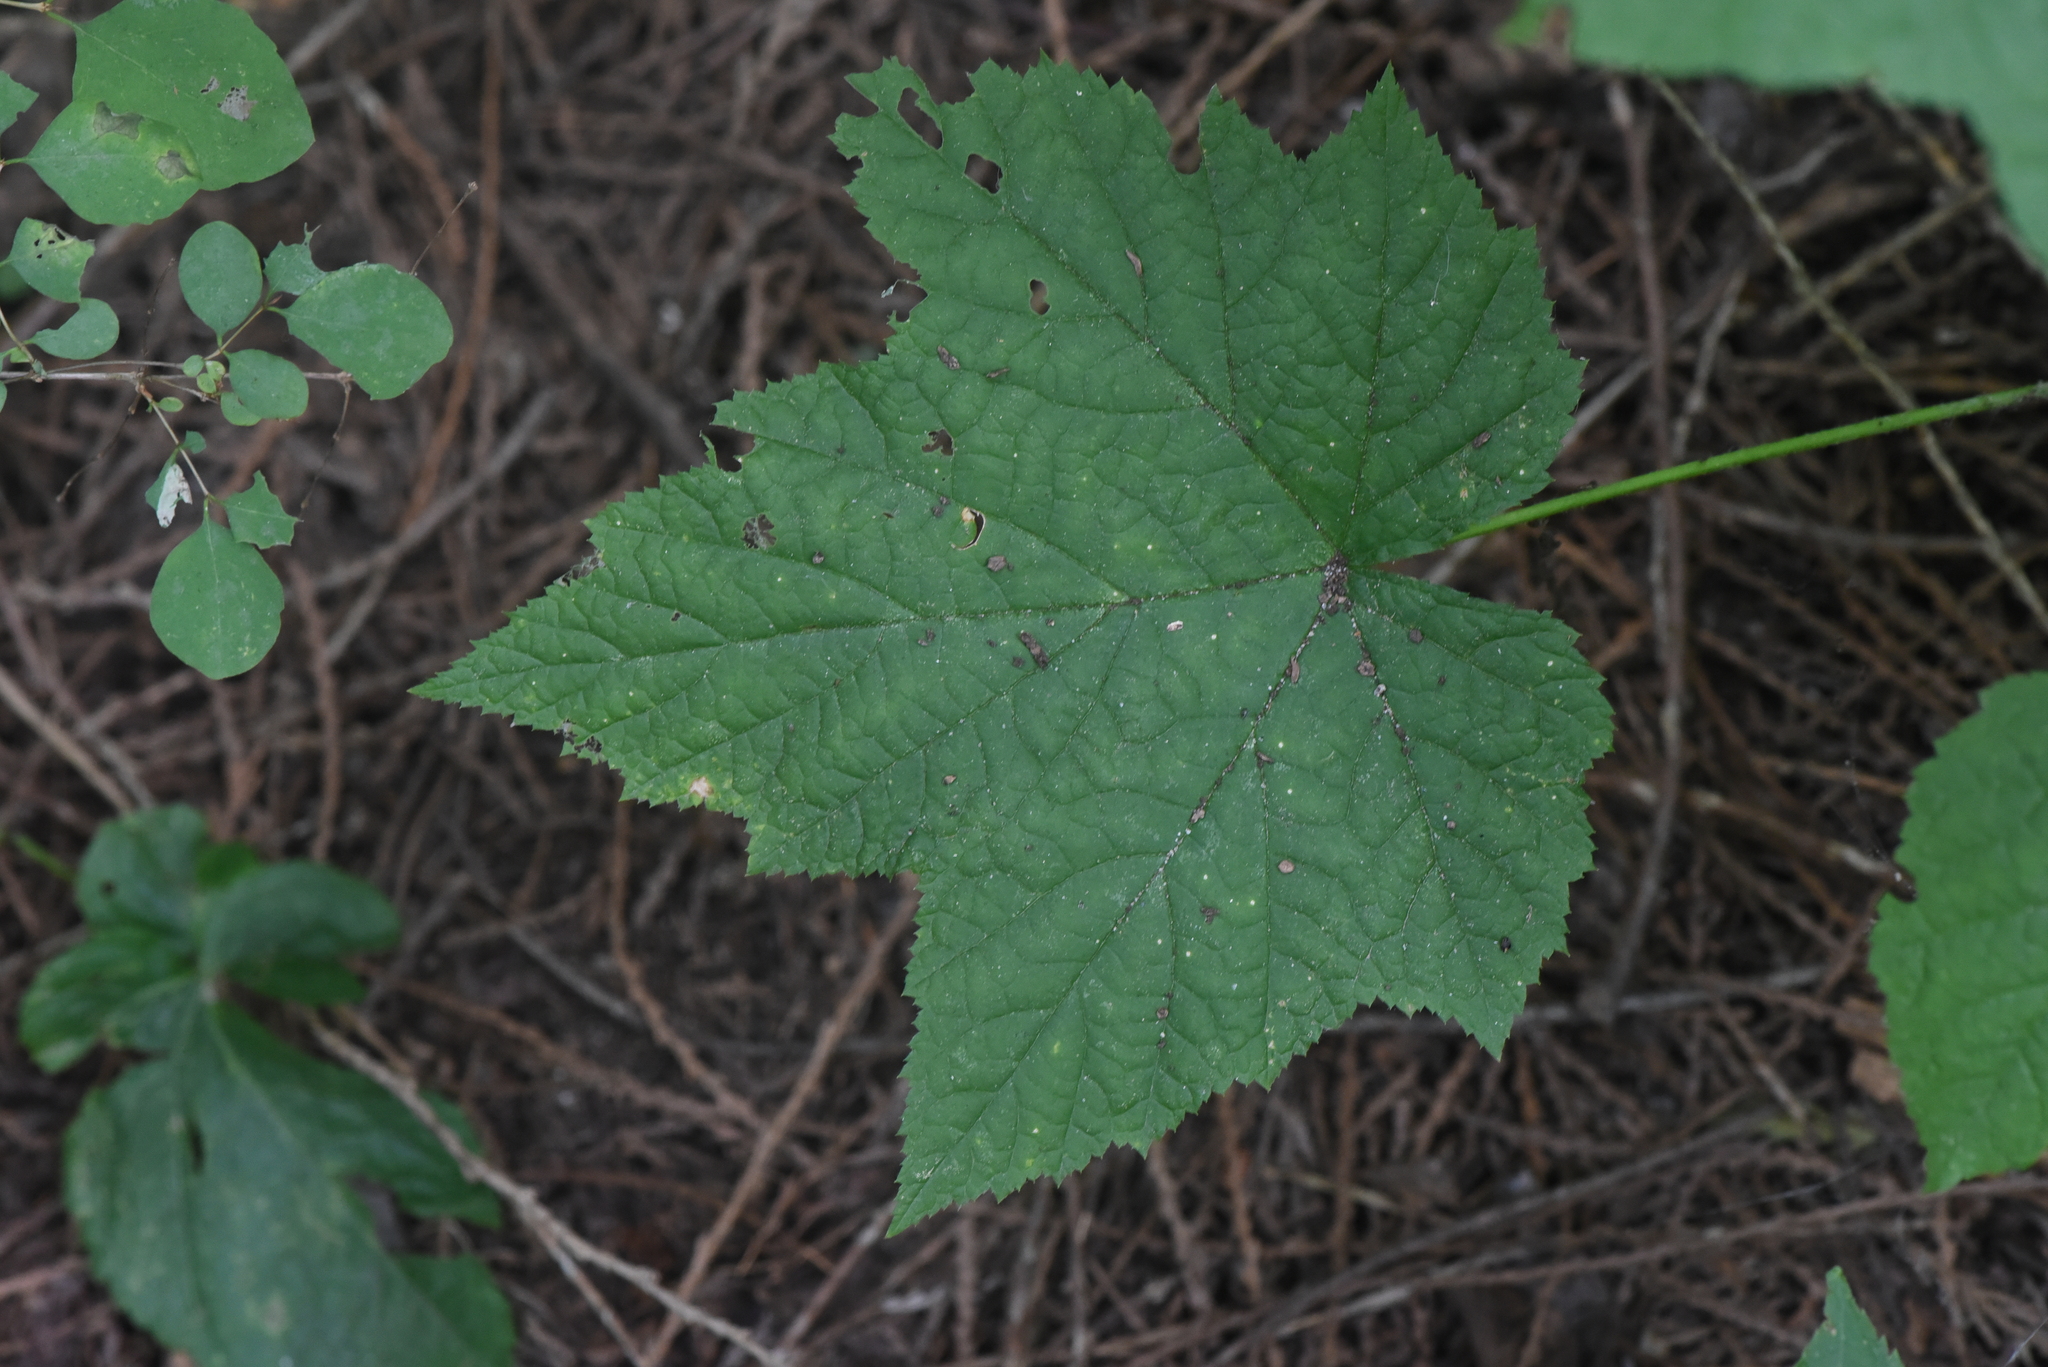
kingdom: Plantae
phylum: Tracheophyta
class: Magnoliopsida
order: Rosales
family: Rosaceae
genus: Rubus
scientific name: Rubus parviflorus
